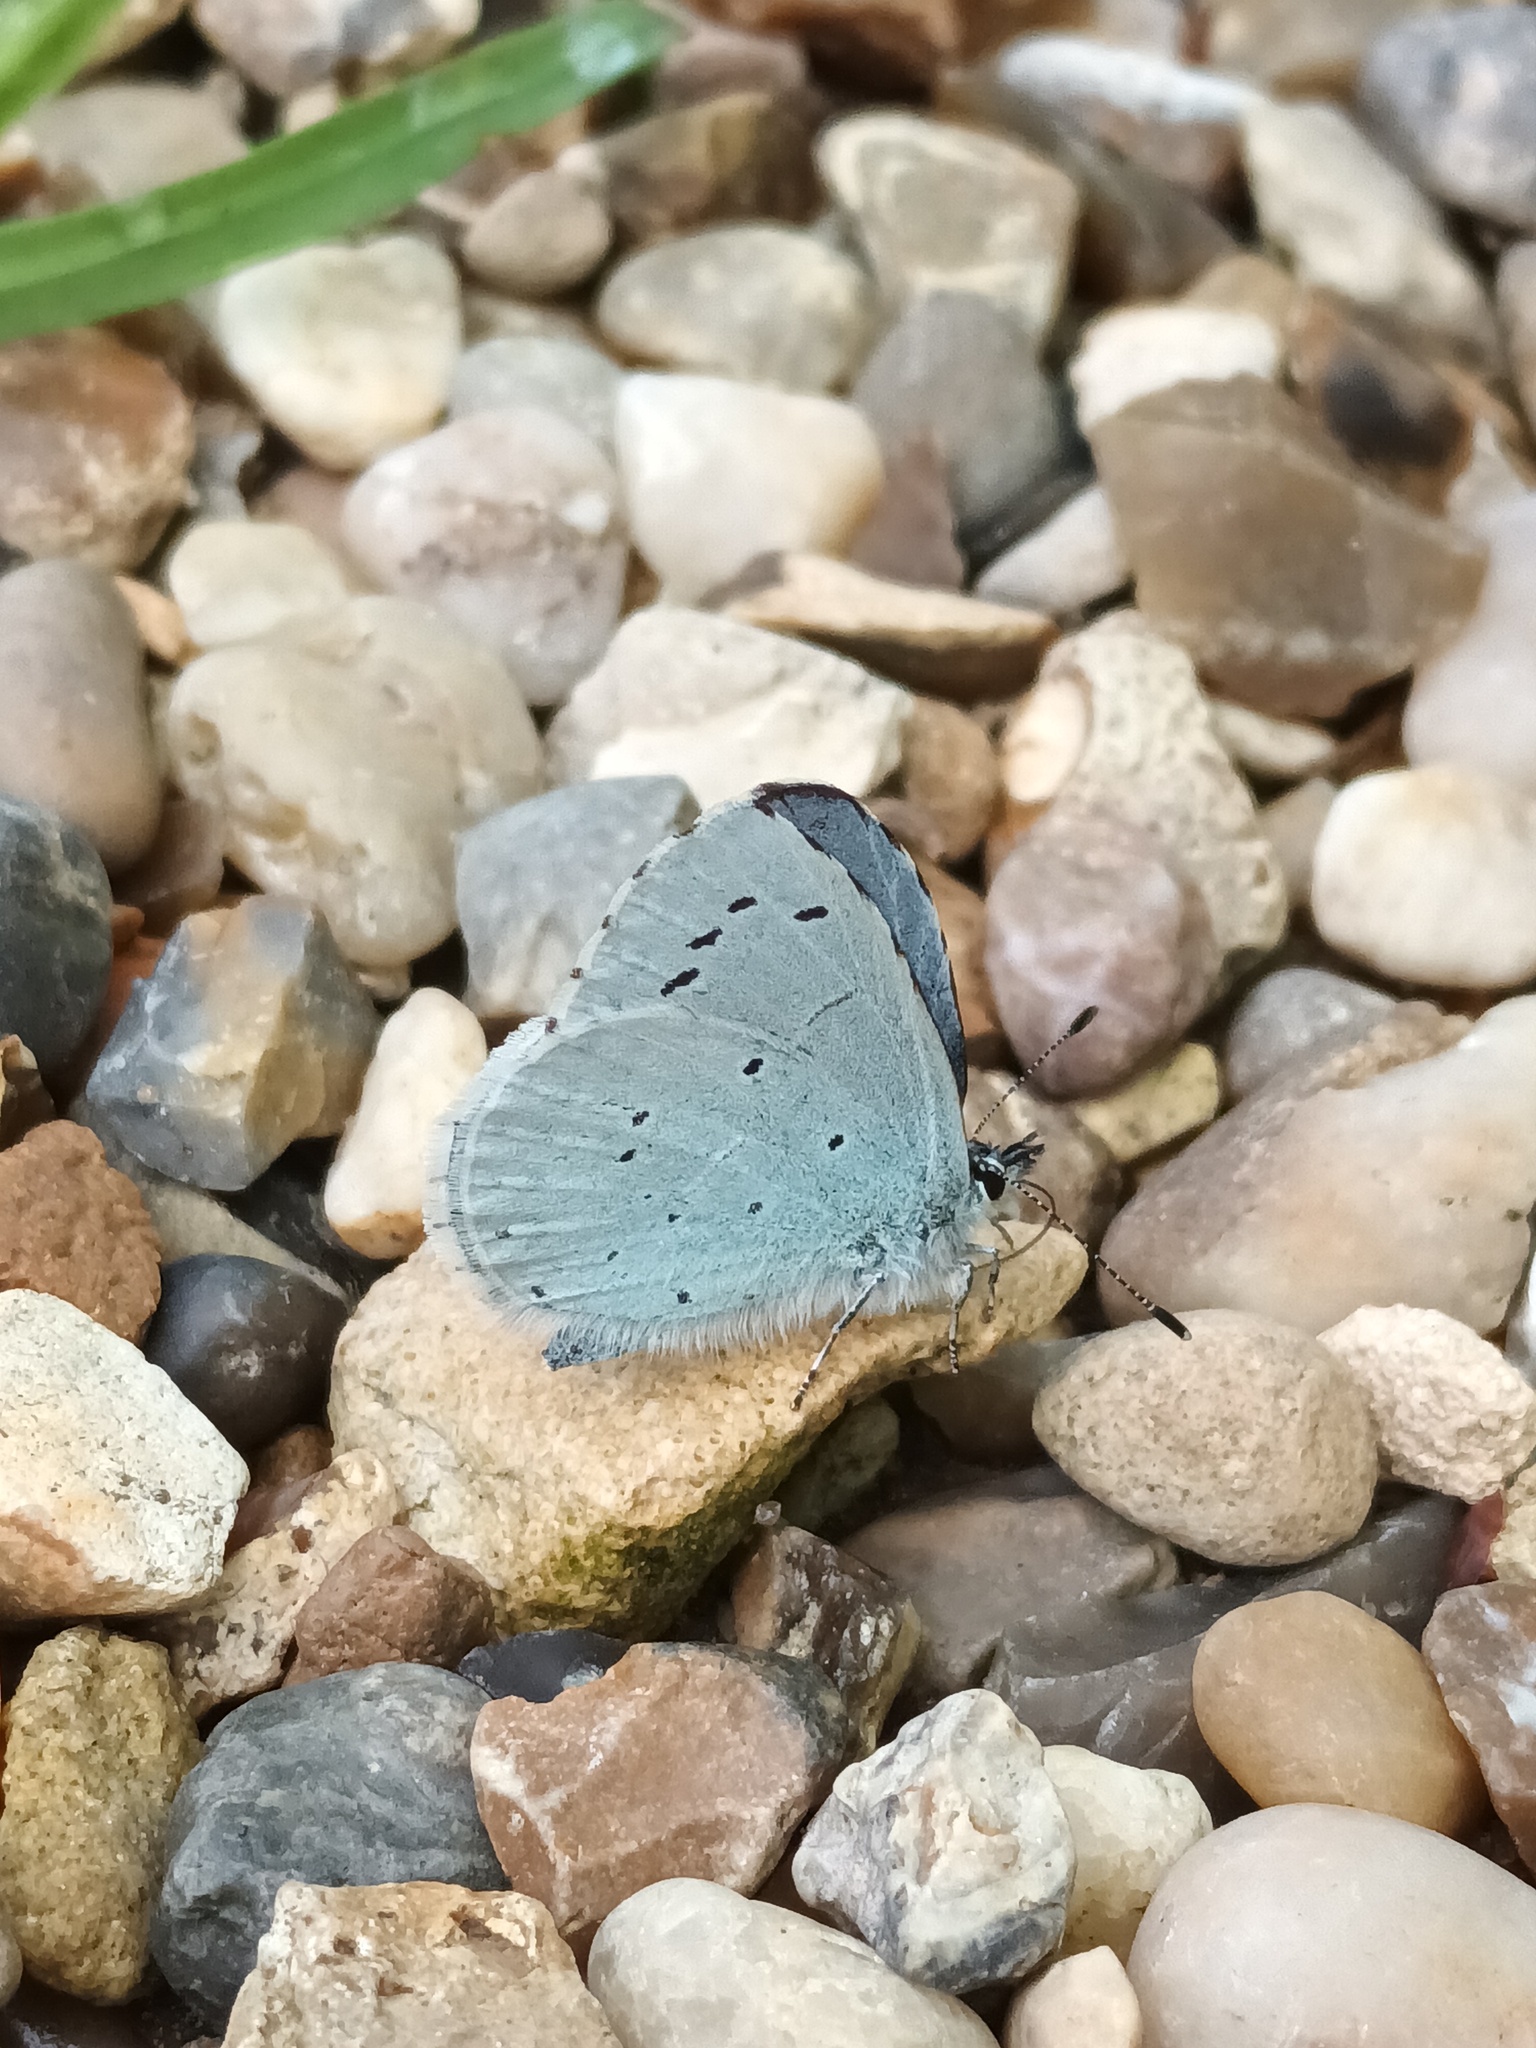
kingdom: Animalia
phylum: Arthropoda
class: Insecta
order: Lepidoptera
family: Lycaenidae
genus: Celastrina
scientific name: Celastrina argiolus
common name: Holly blue
